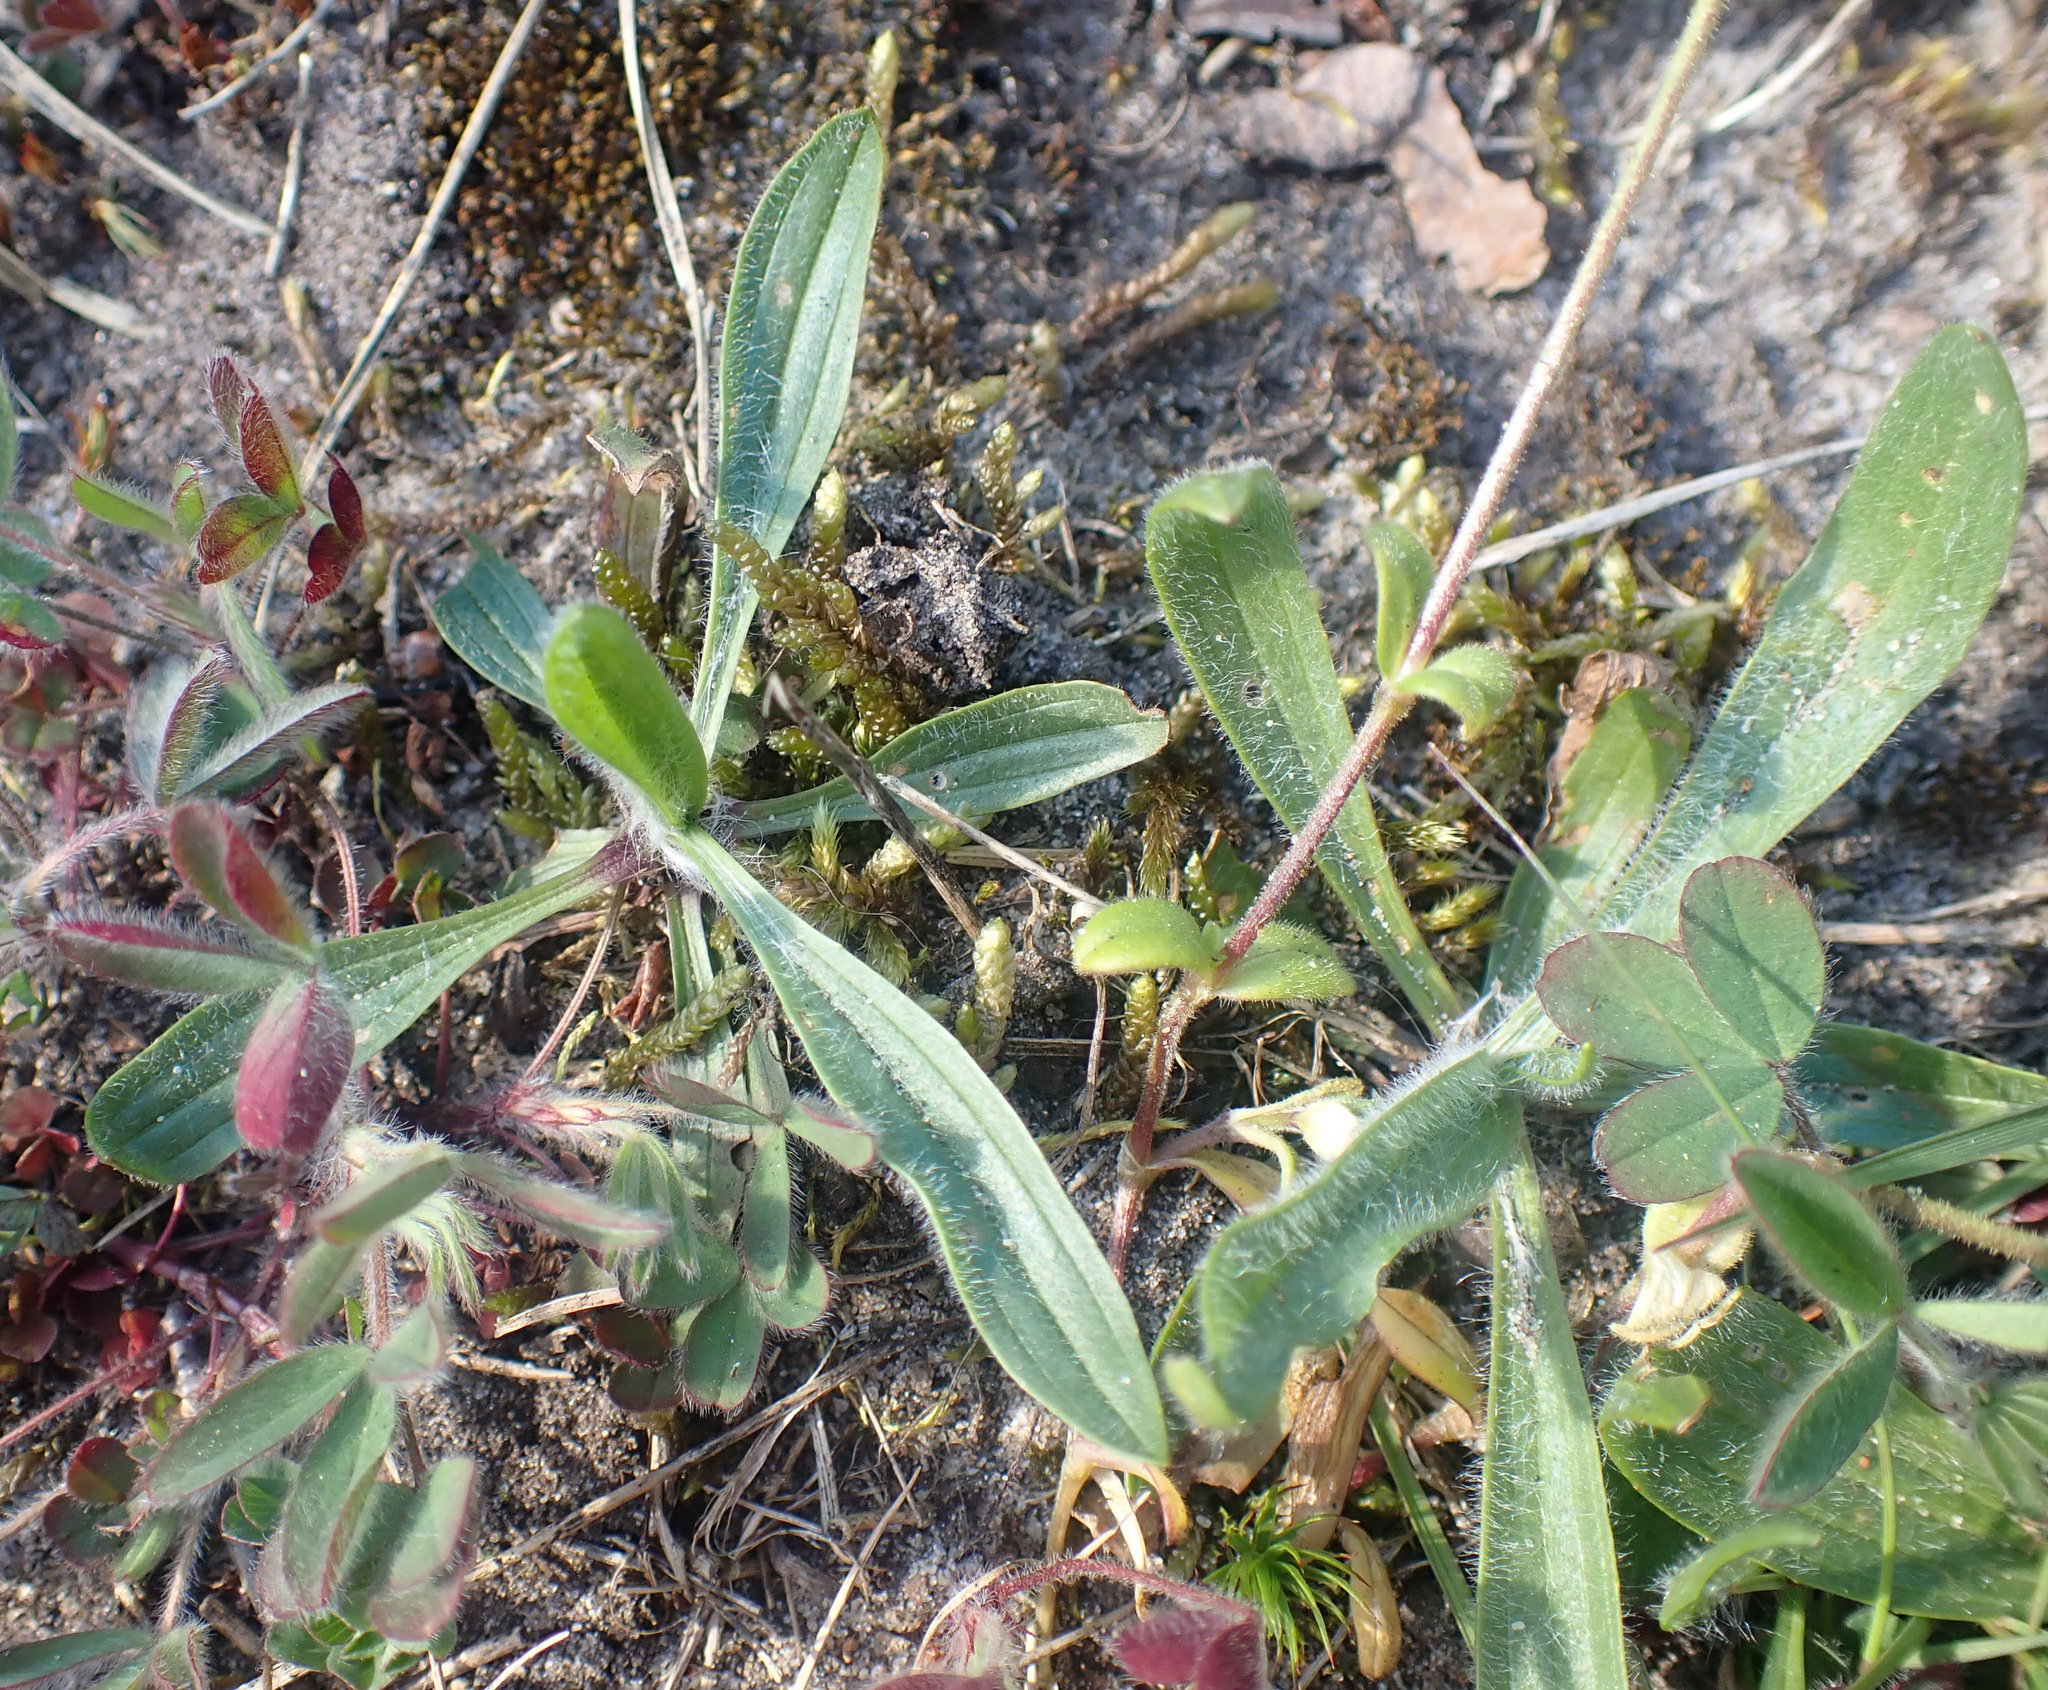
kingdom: Plantae
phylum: Tracheophyta
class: Magnoliopsida
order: Lamiales
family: Plantaginaceae
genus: Plantago
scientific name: Plantago lanceolata
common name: Ribwort plantain
